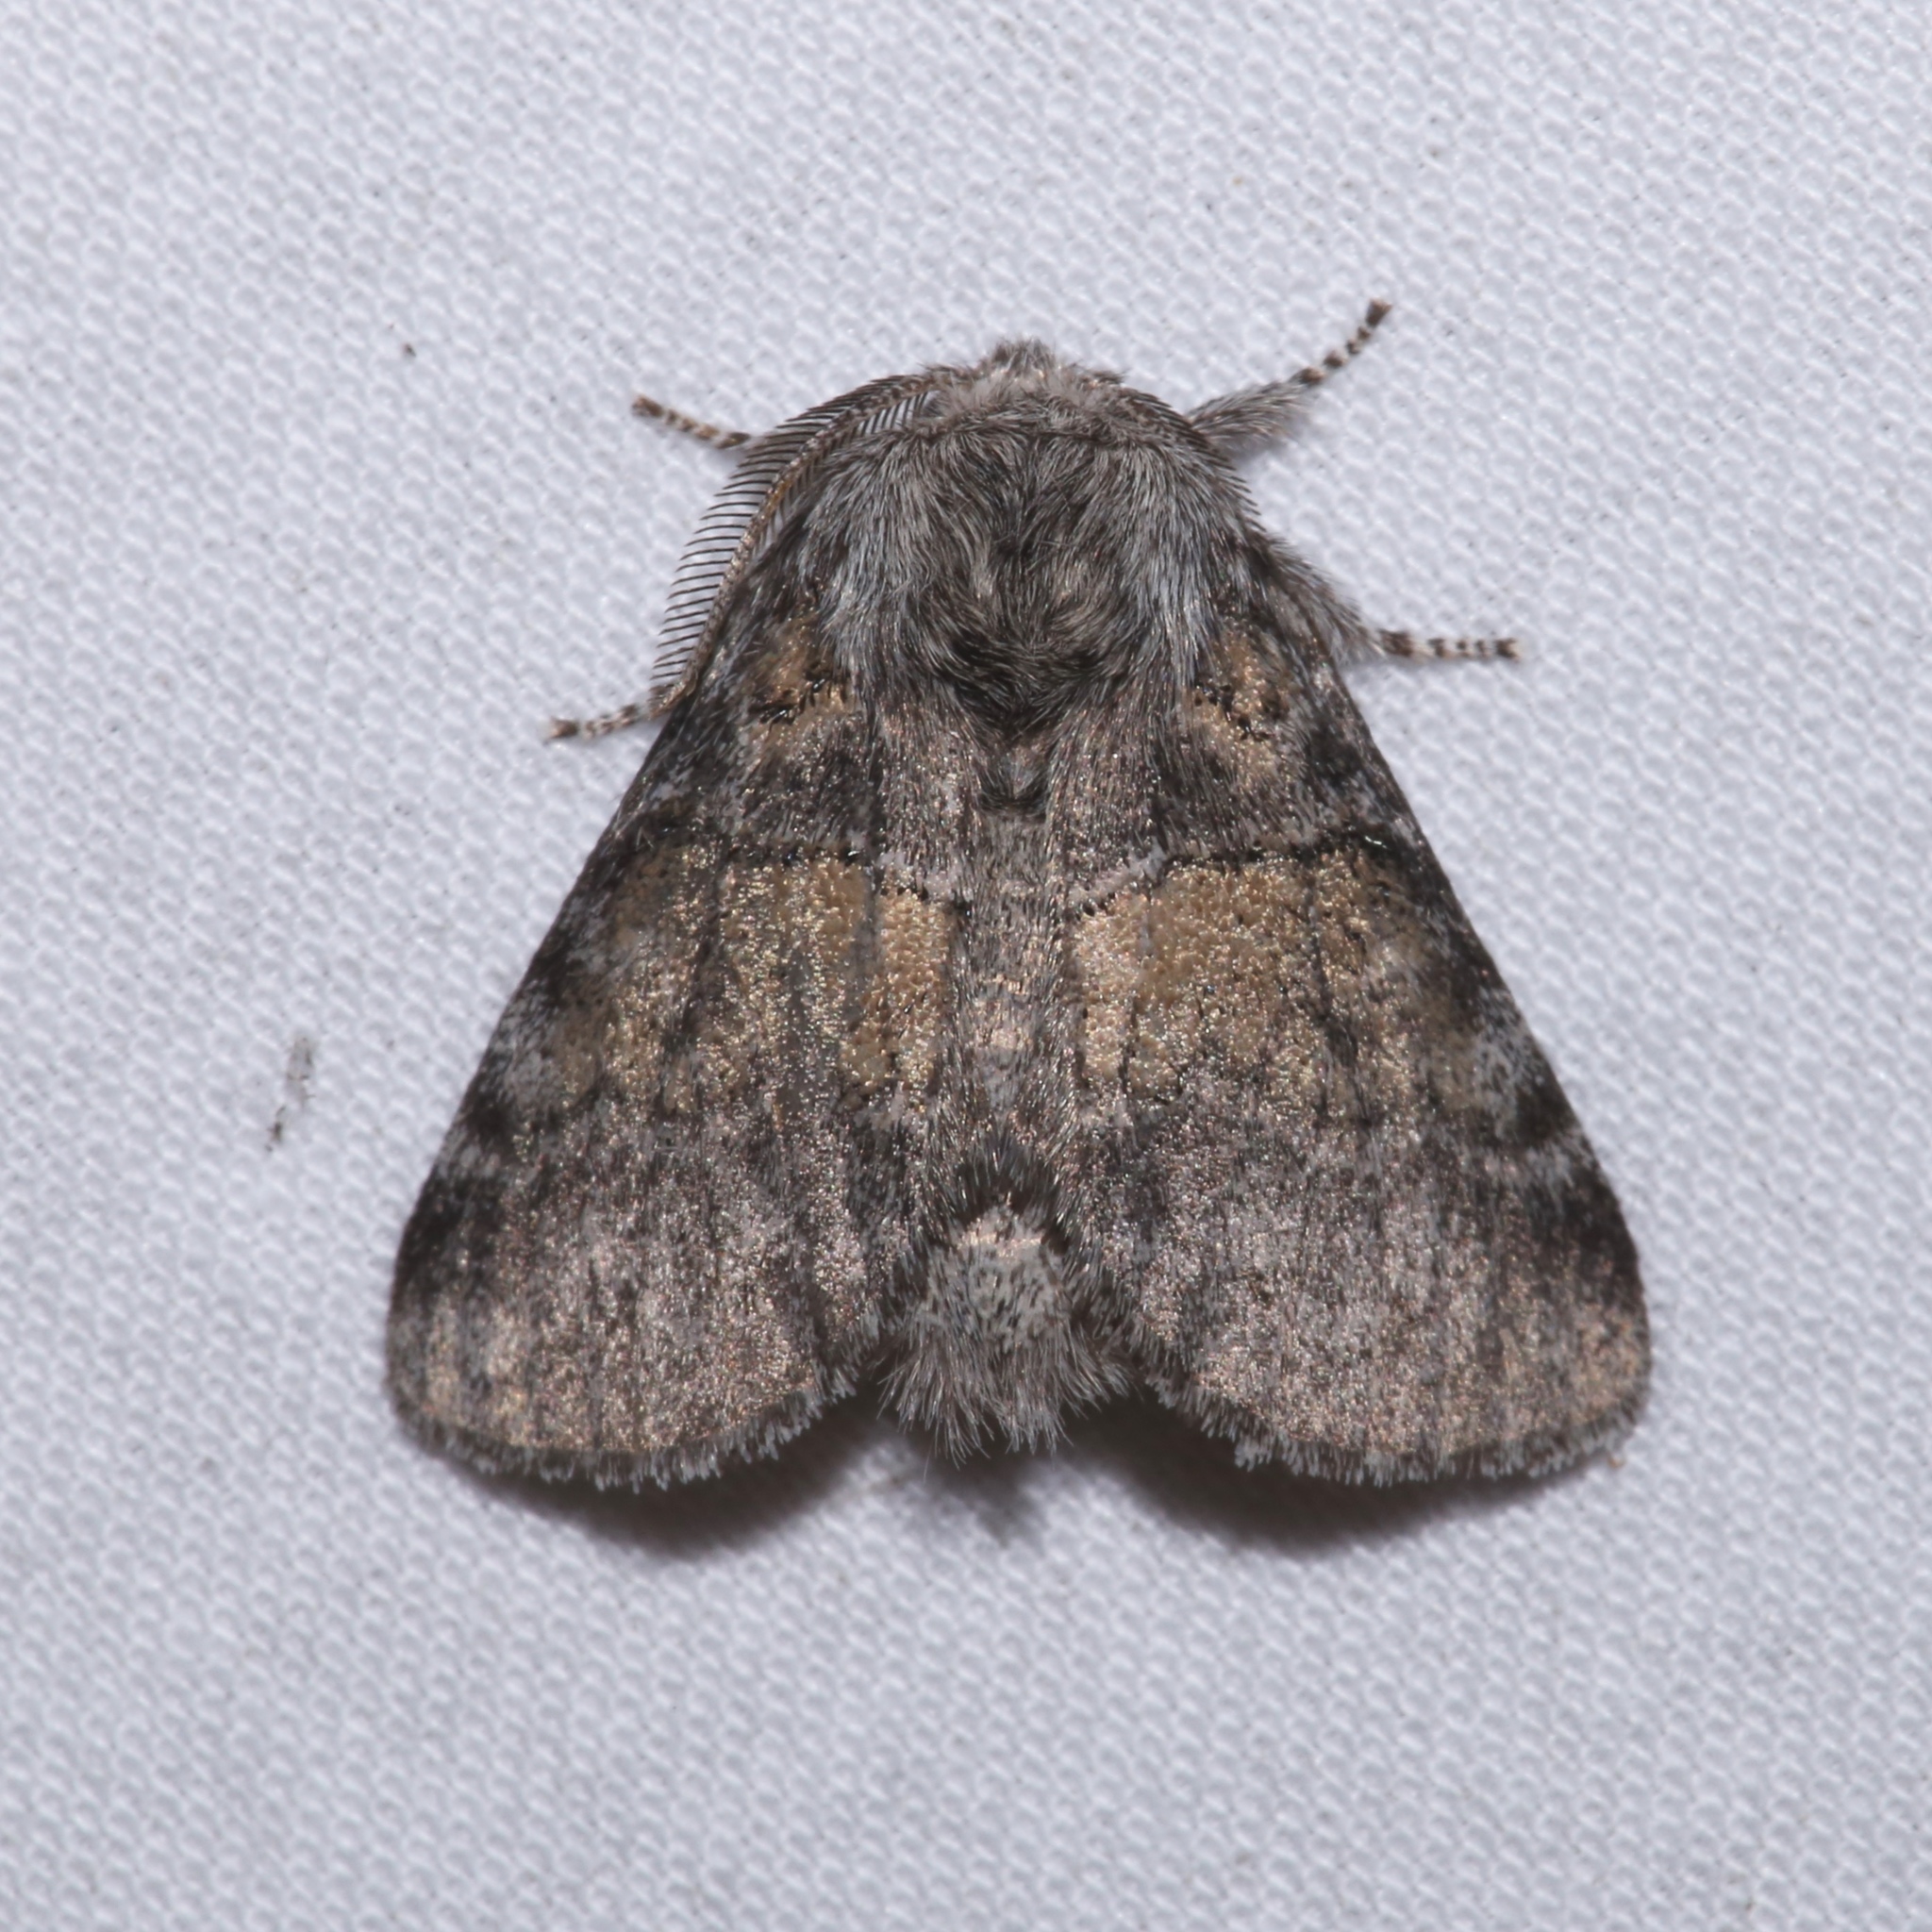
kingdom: Animalia
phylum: Arthropoda
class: Insecta
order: Lepidoptera
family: Notodontidae
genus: Gluphisia
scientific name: Gluphisia septentrionis
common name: Common gluphisia
